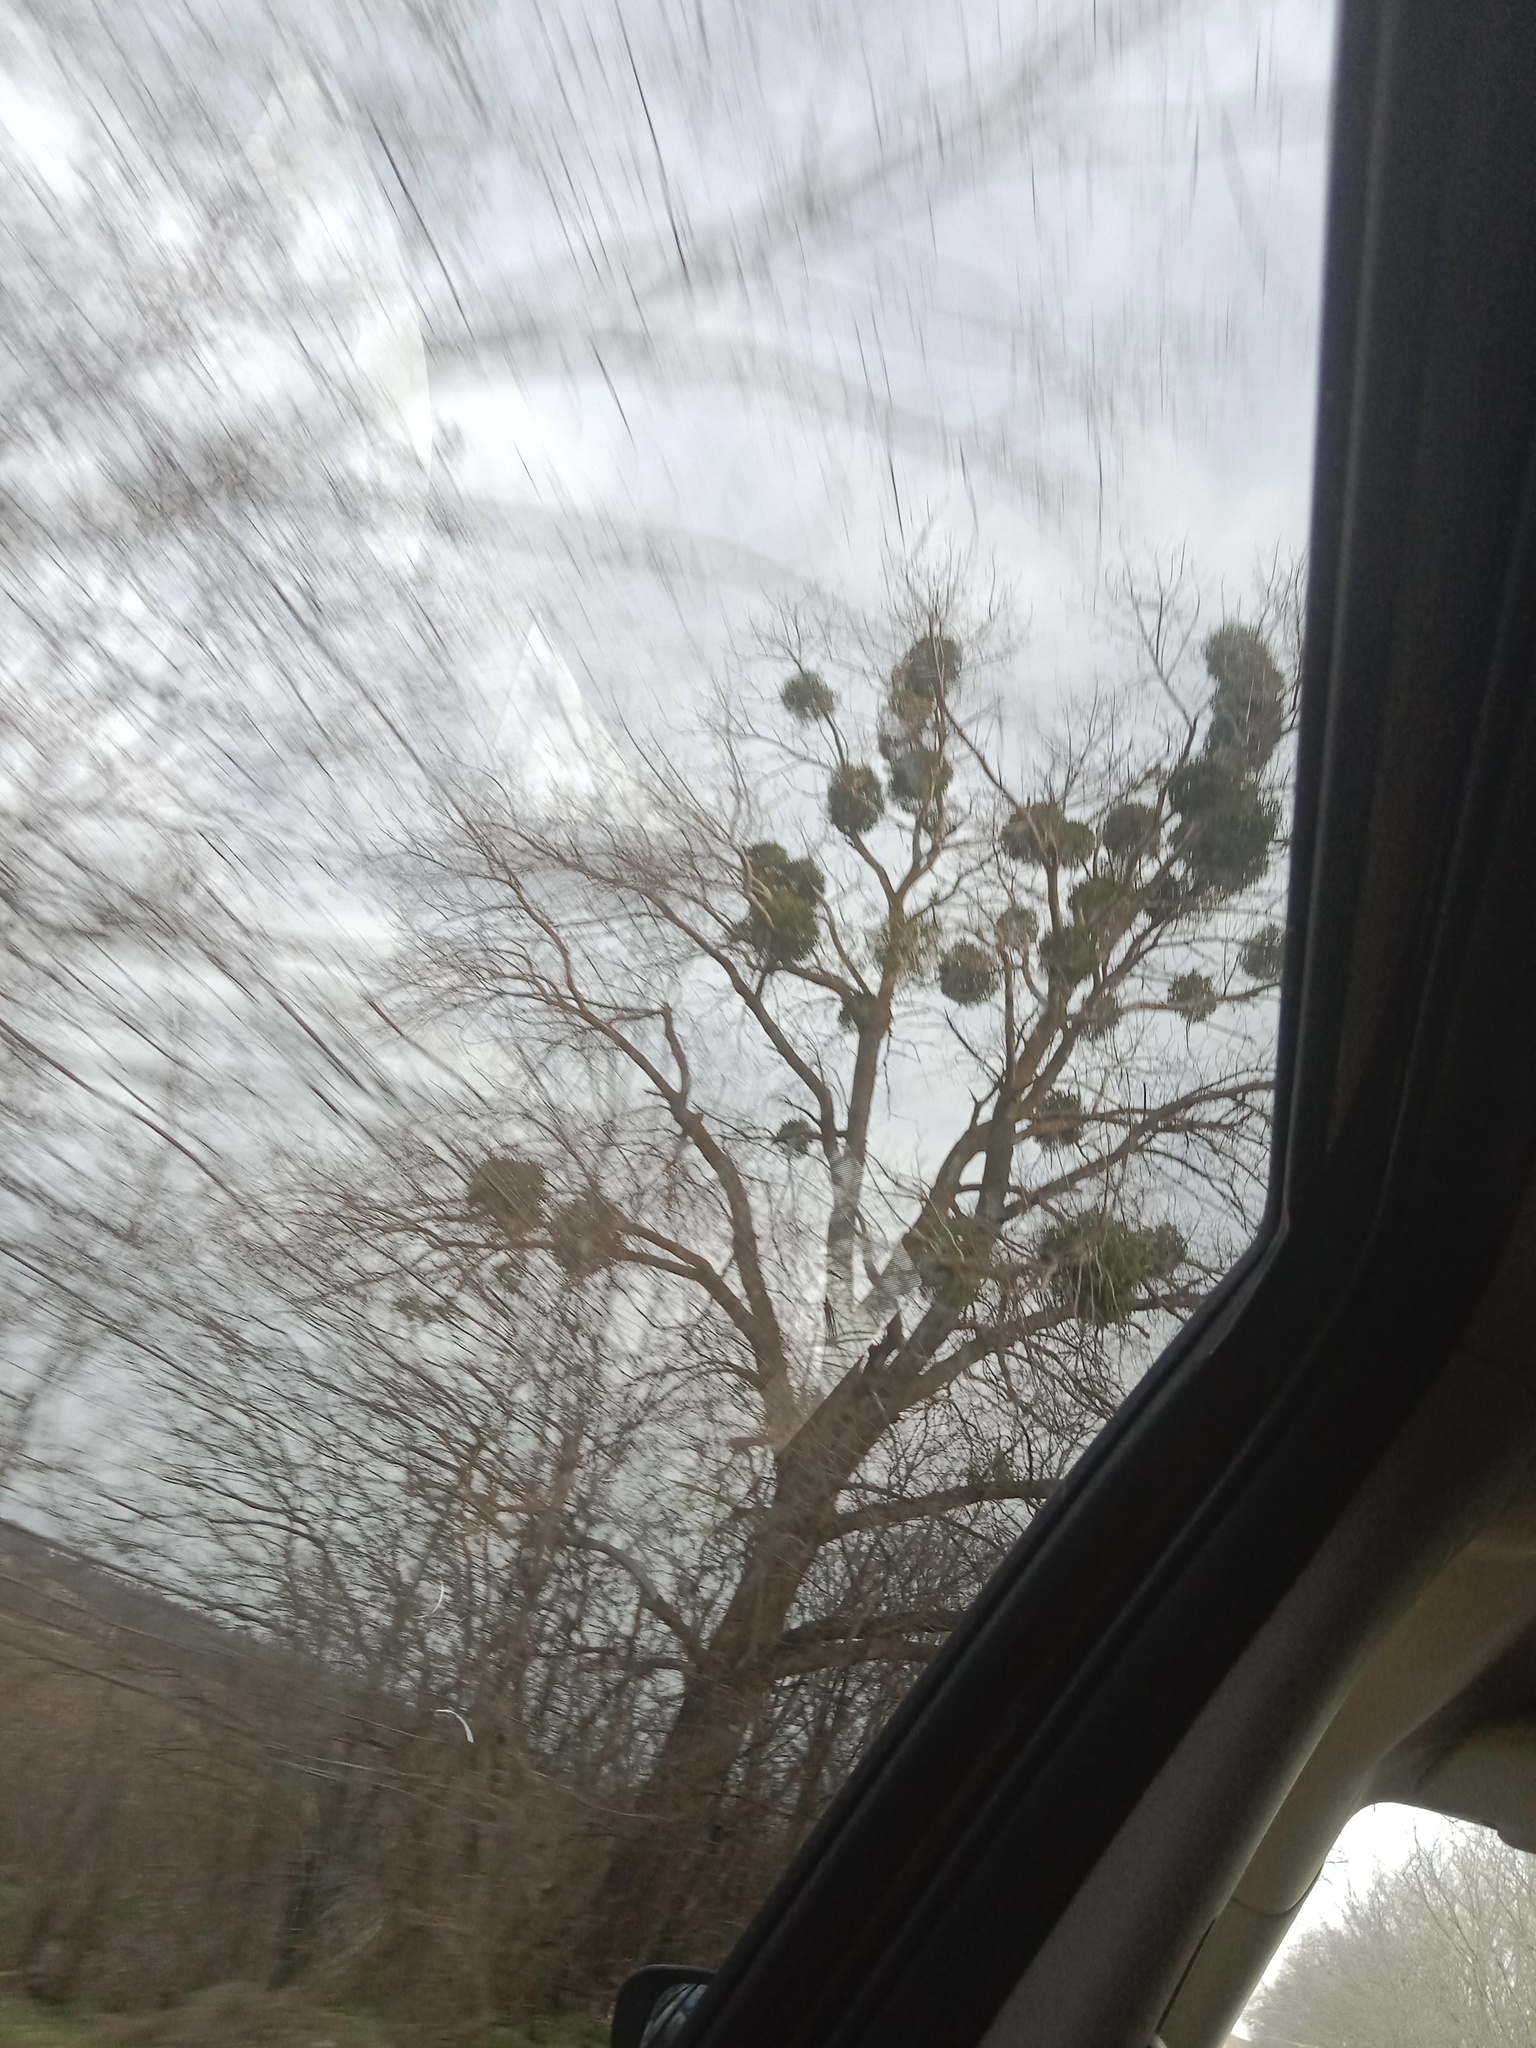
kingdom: Plantae
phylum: Tracheophyta
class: Magnoliopsida
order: Santalales
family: Viscaceae
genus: Viscum
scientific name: Viscum album
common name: Mistletoe
